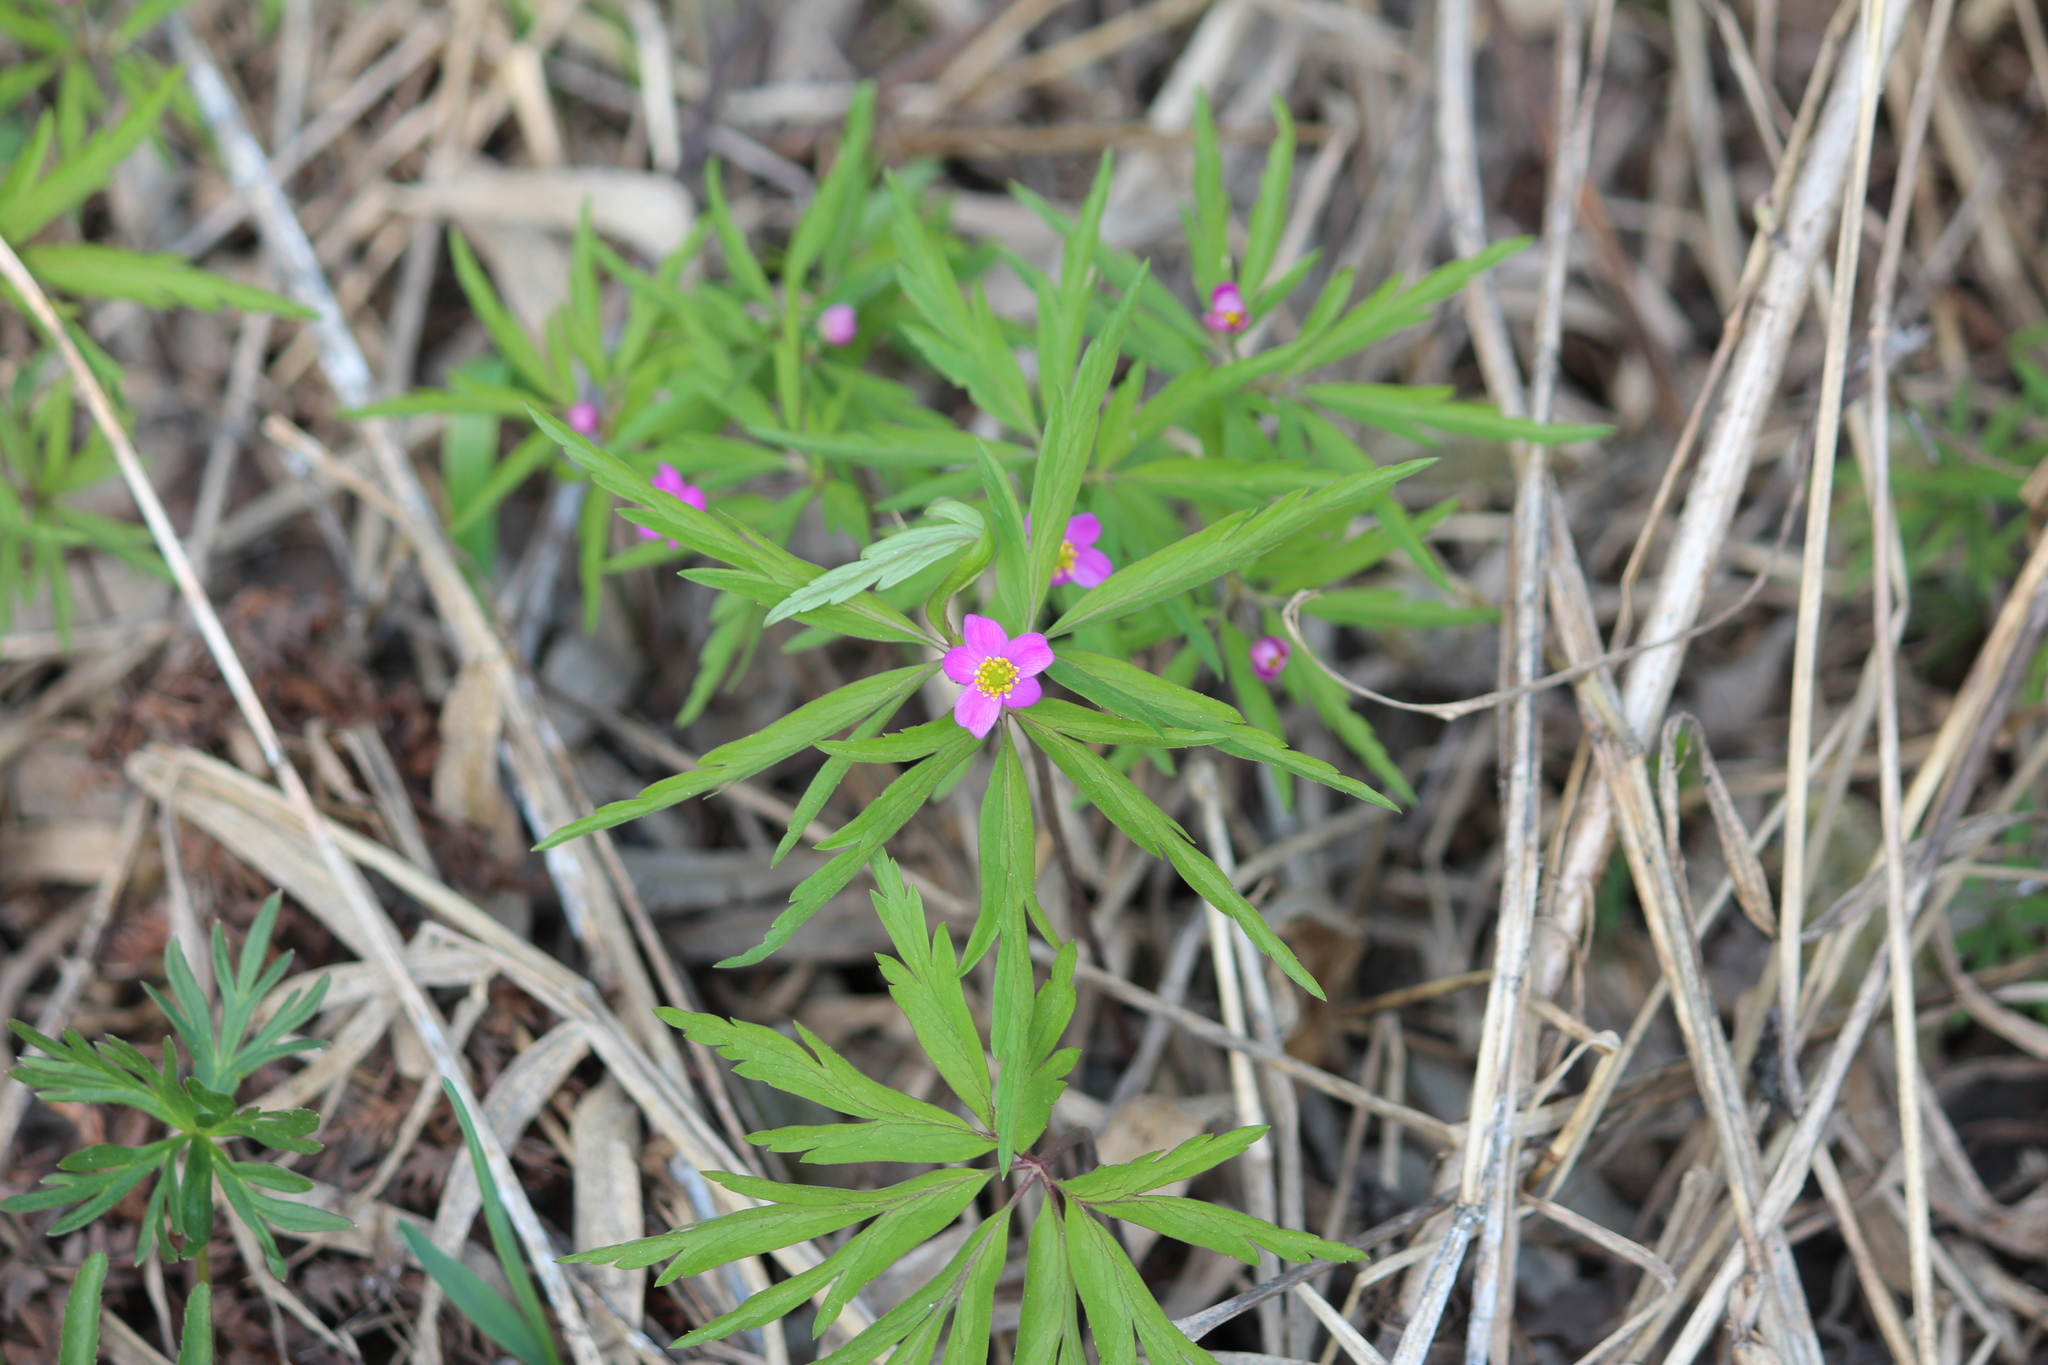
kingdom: Plantae
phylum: Tracheophyta
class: Magnoliopsida
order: Ranunculales
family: Ranunculaceae
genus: Anemone
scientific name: Anemone caerulea
